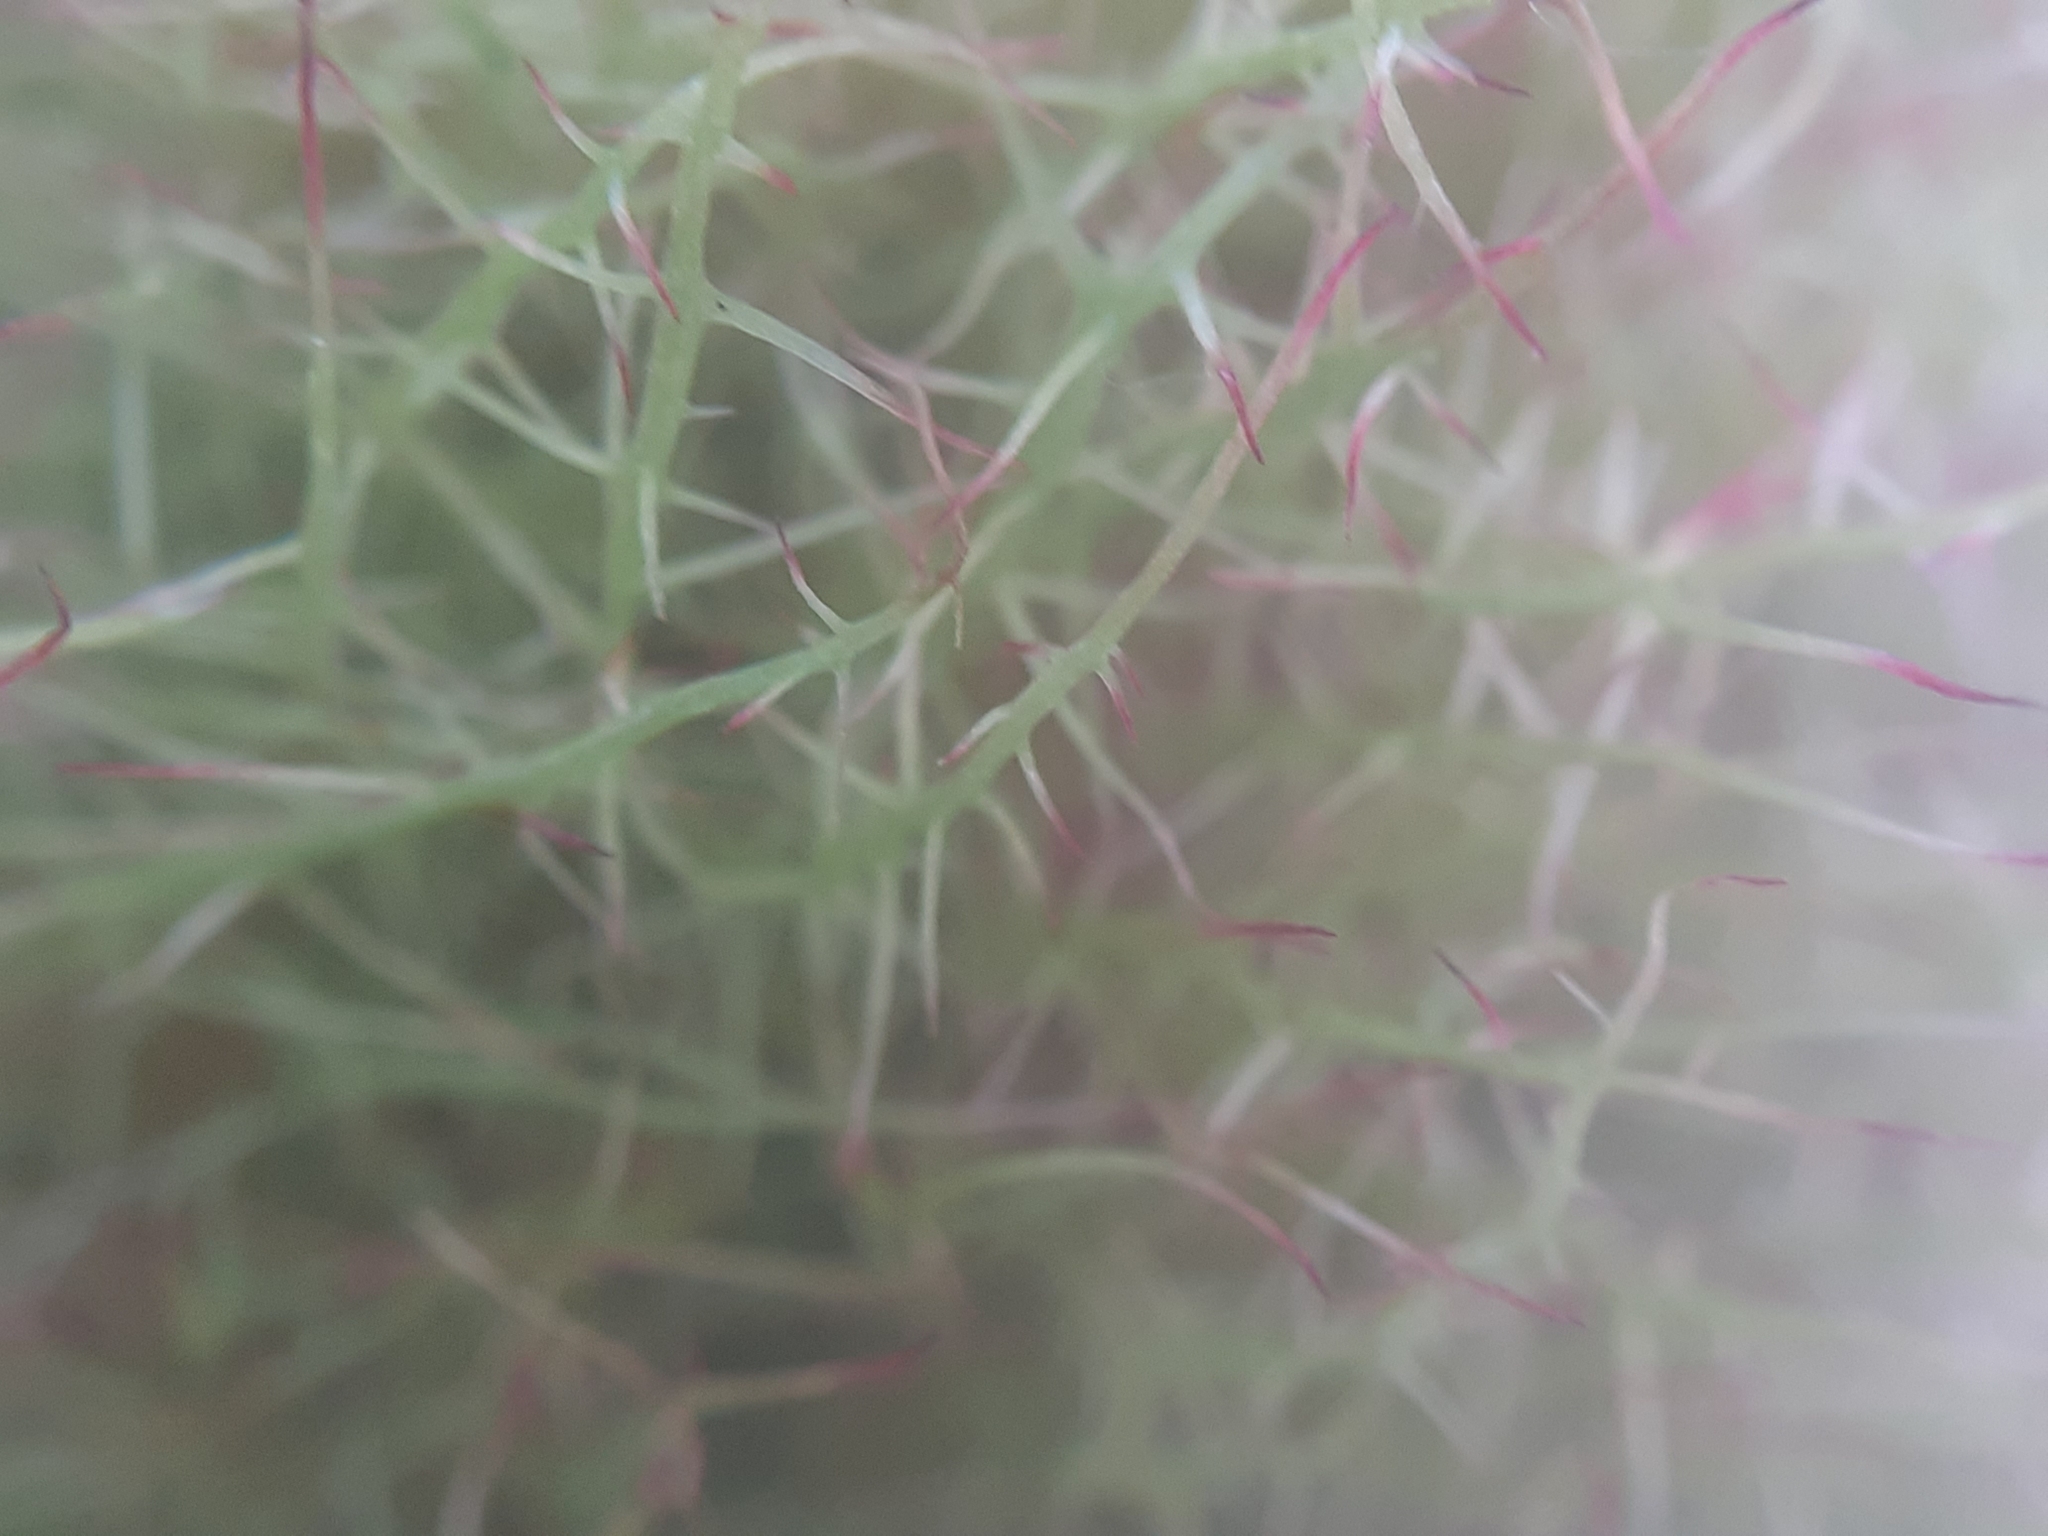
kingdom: Animalia
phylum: Arthropoda
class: Insecta
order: Hymenoptera
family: Cynipidae
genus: Diplolepis
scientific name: Diplolepis rosae
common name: Bedeguar gall
